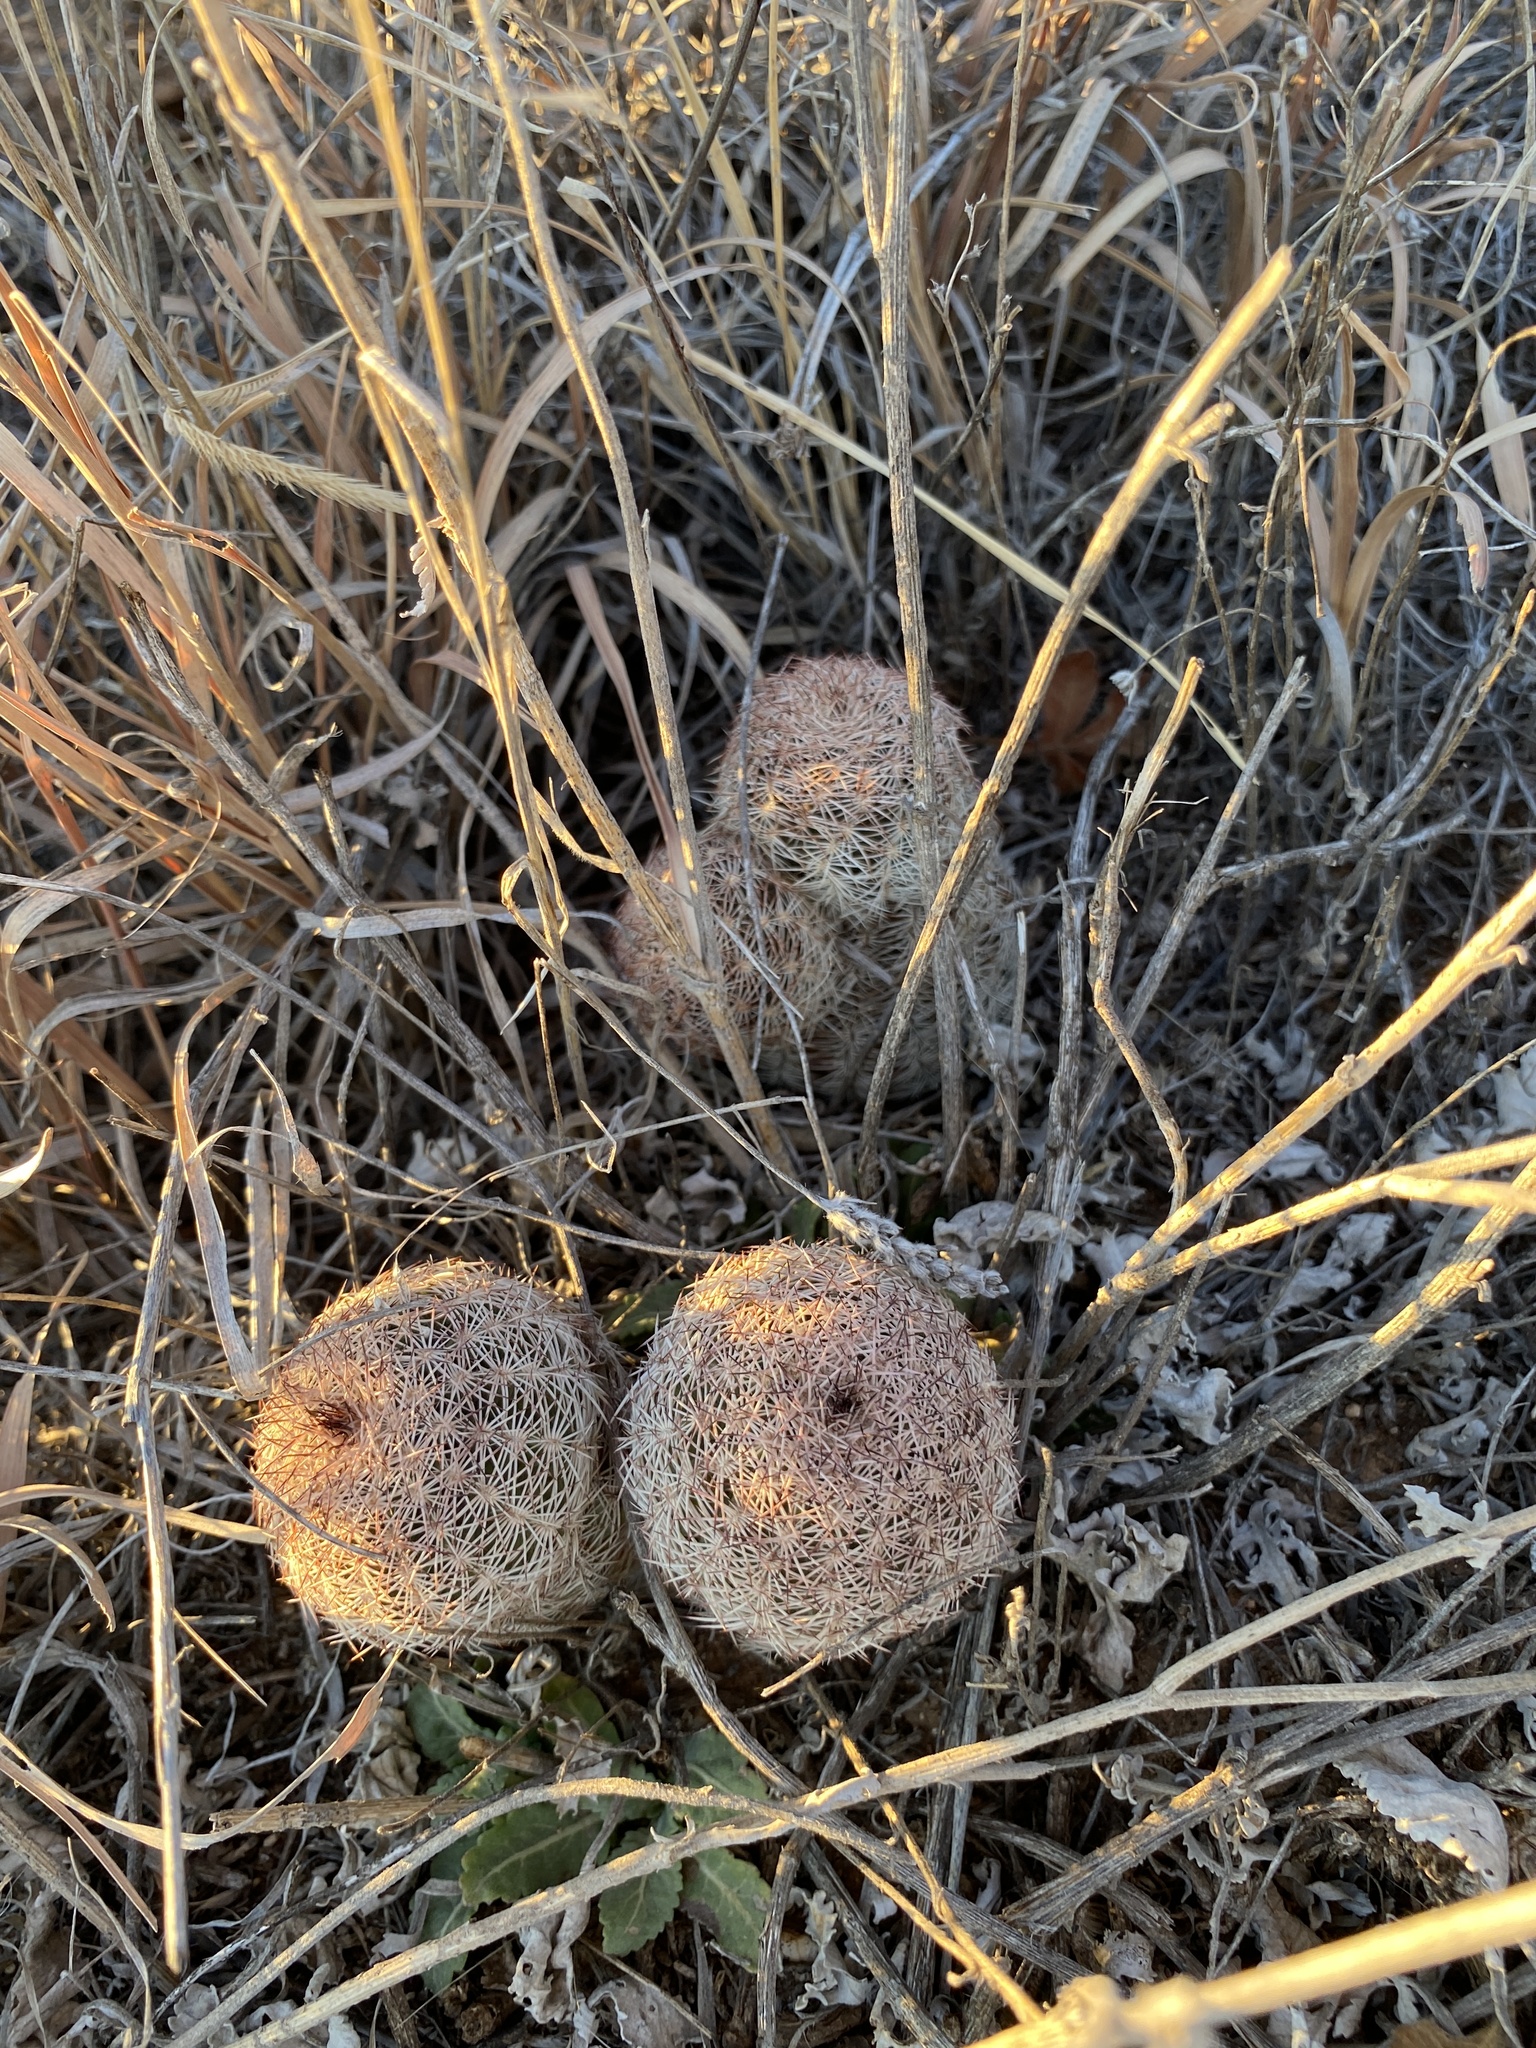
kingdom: Plantae
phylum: Tracheophyta
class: Magnoliopsida
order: Caryophyllales
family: Cactaceae
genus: Echinocereus
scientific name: Echinocereus reichenbachii
